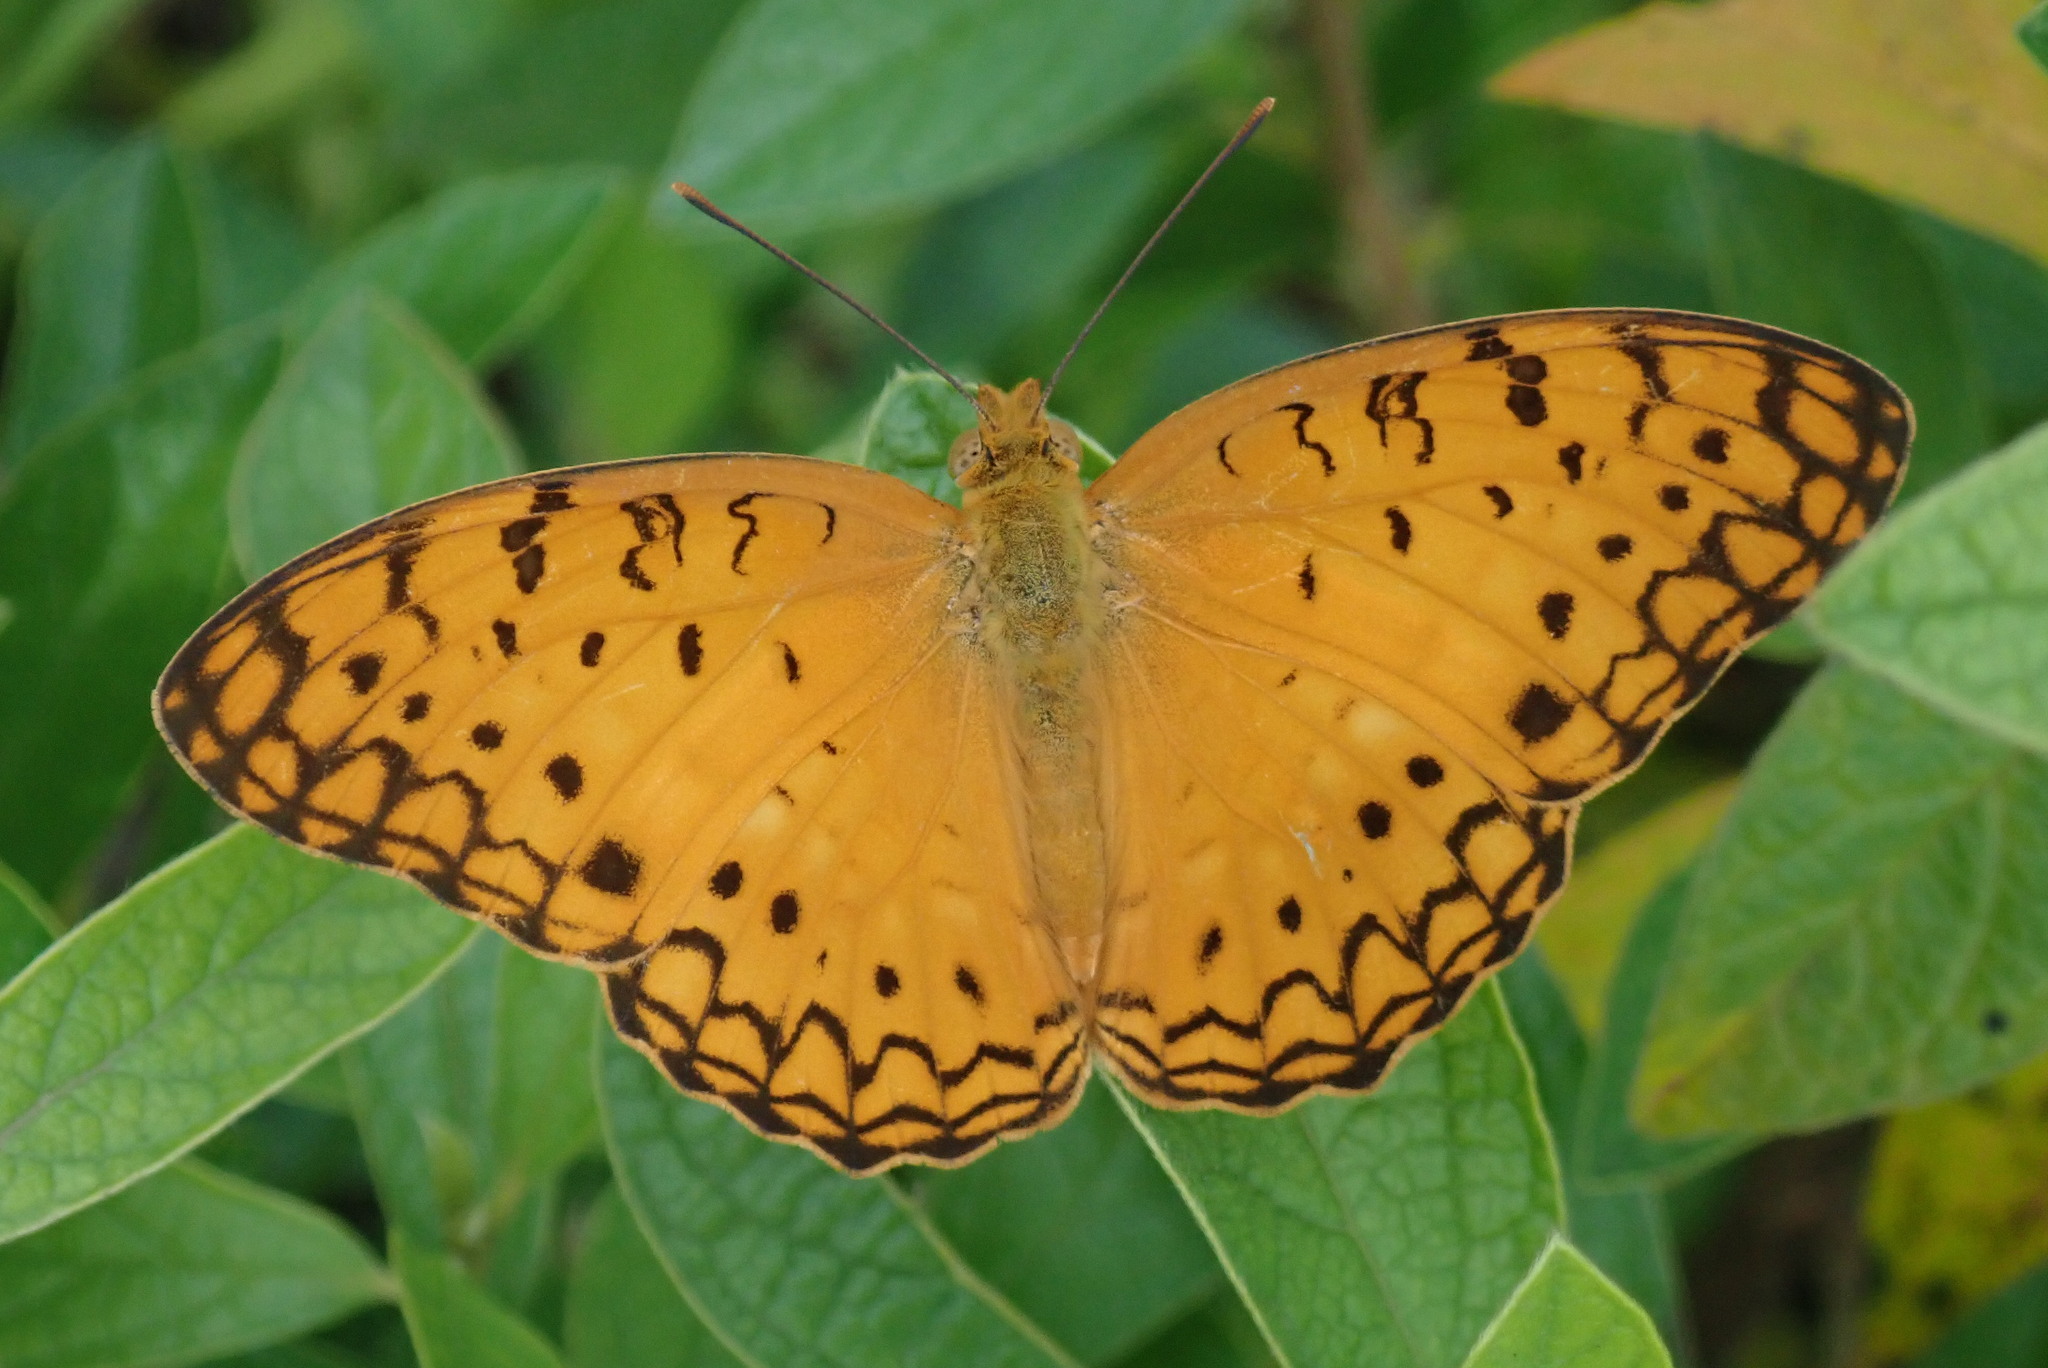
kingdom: Animalia
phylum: Arthropoda
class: Insecta
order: Lepidoptera
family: Nymphalidae
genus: Phalanta
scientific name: Phalanta phalantha
